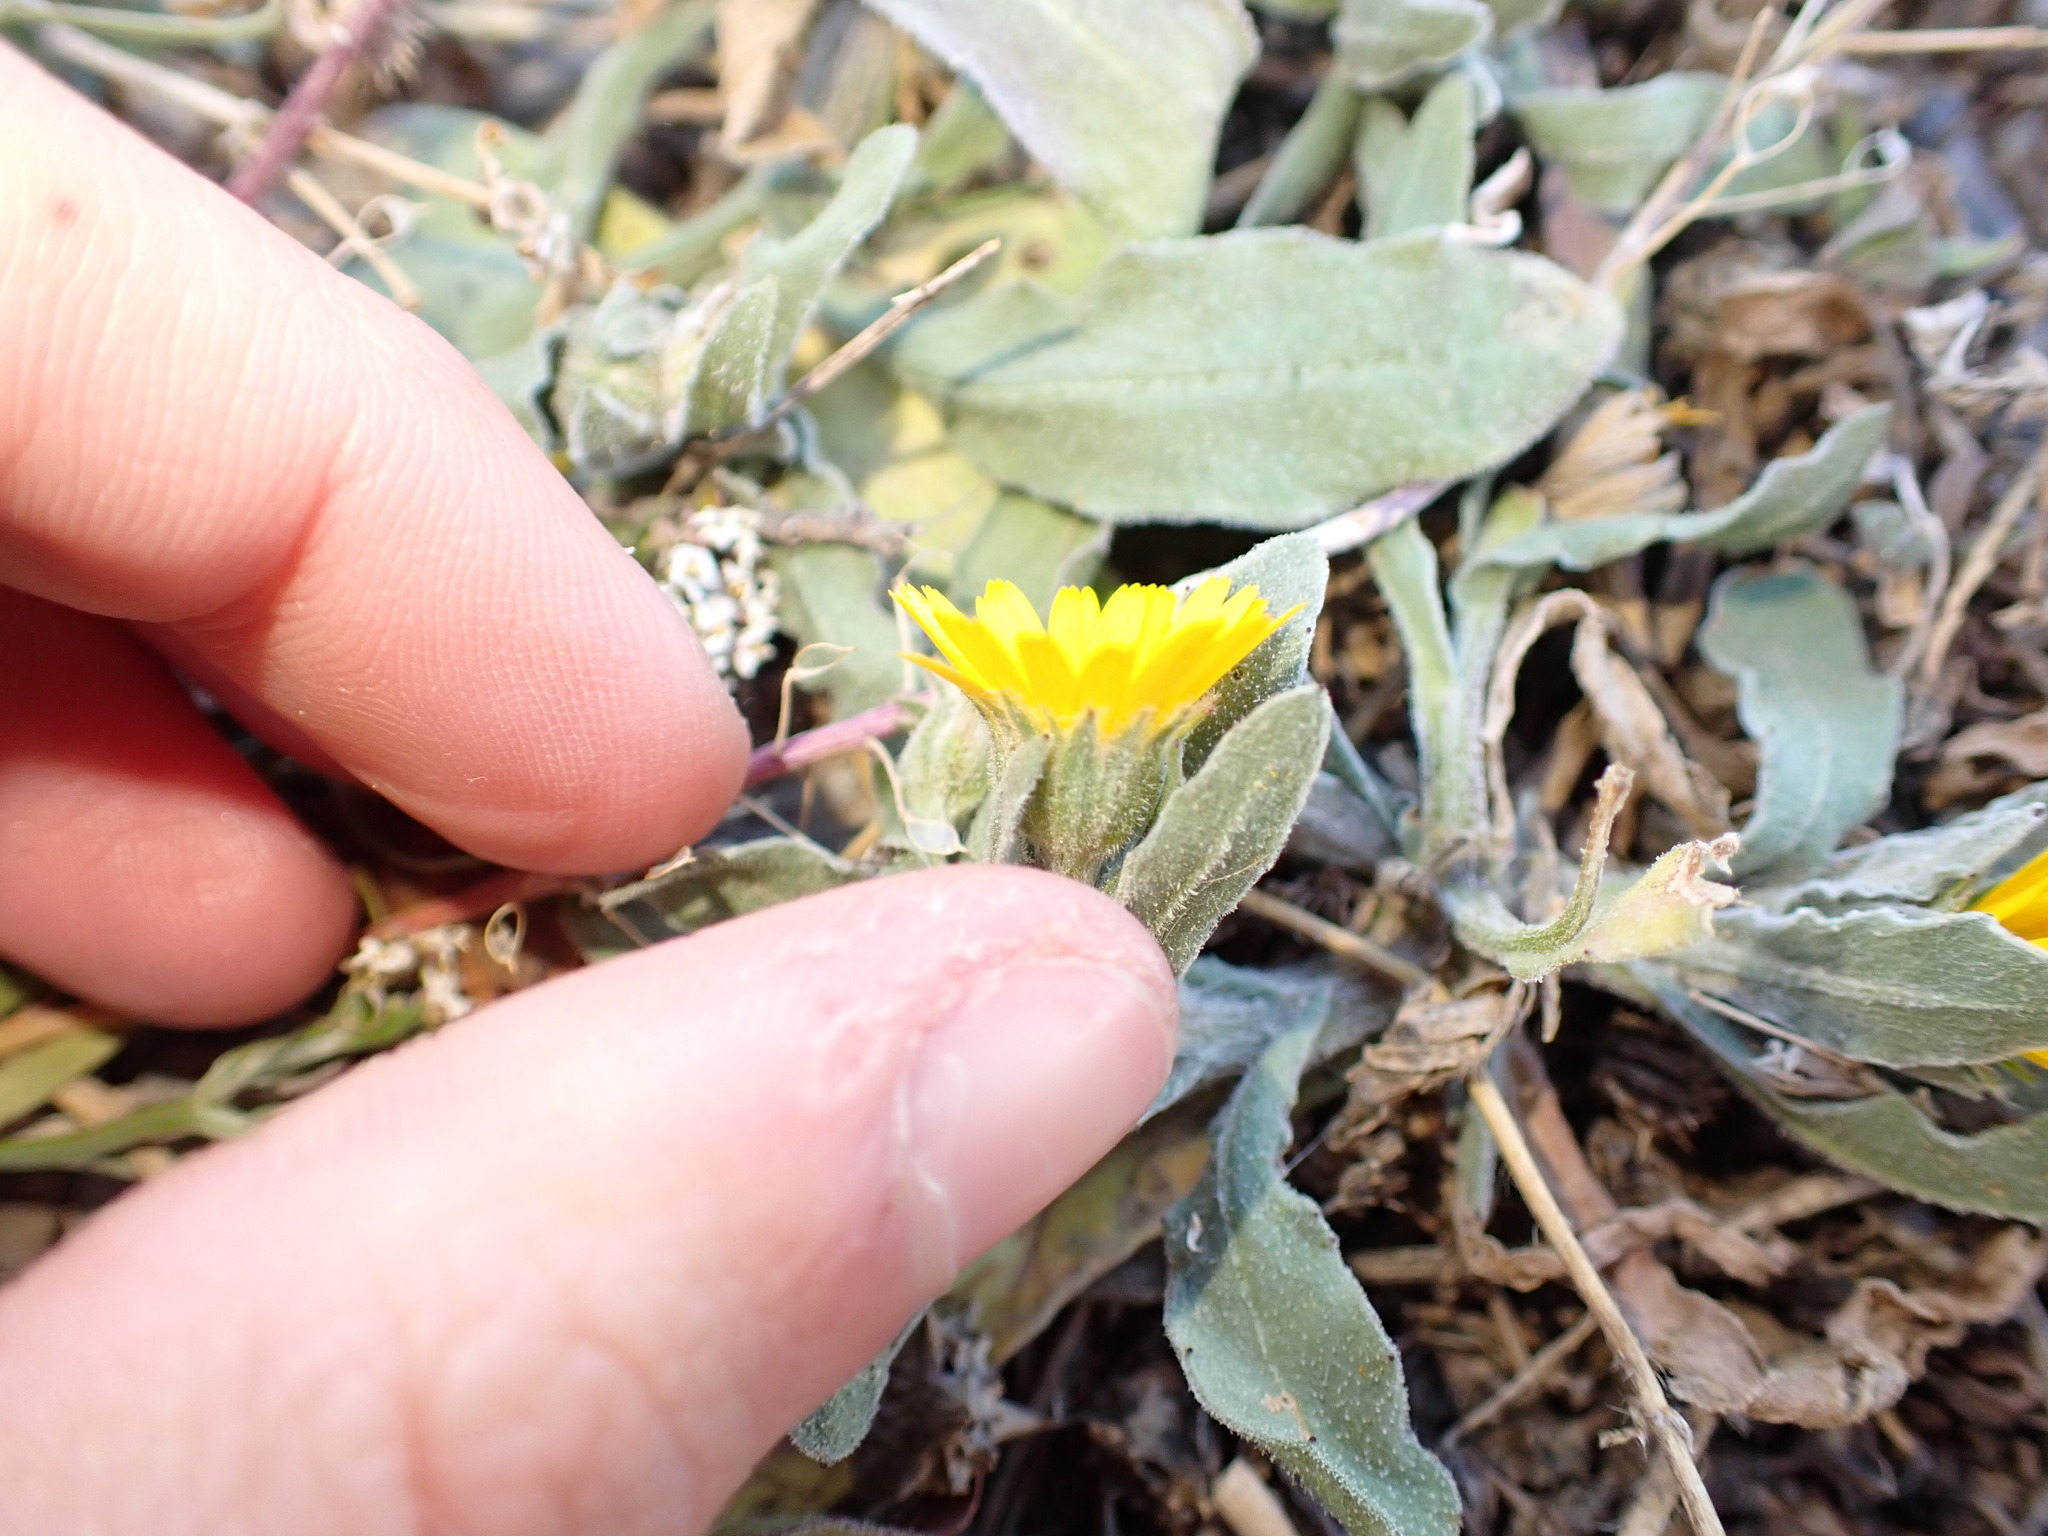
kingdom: Plantae
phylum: Tracheophyta
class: Magnoliopsida
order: Asterales
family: Asteraceae
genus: Calendula
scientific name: Calendula arvensis
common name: Field marigold
